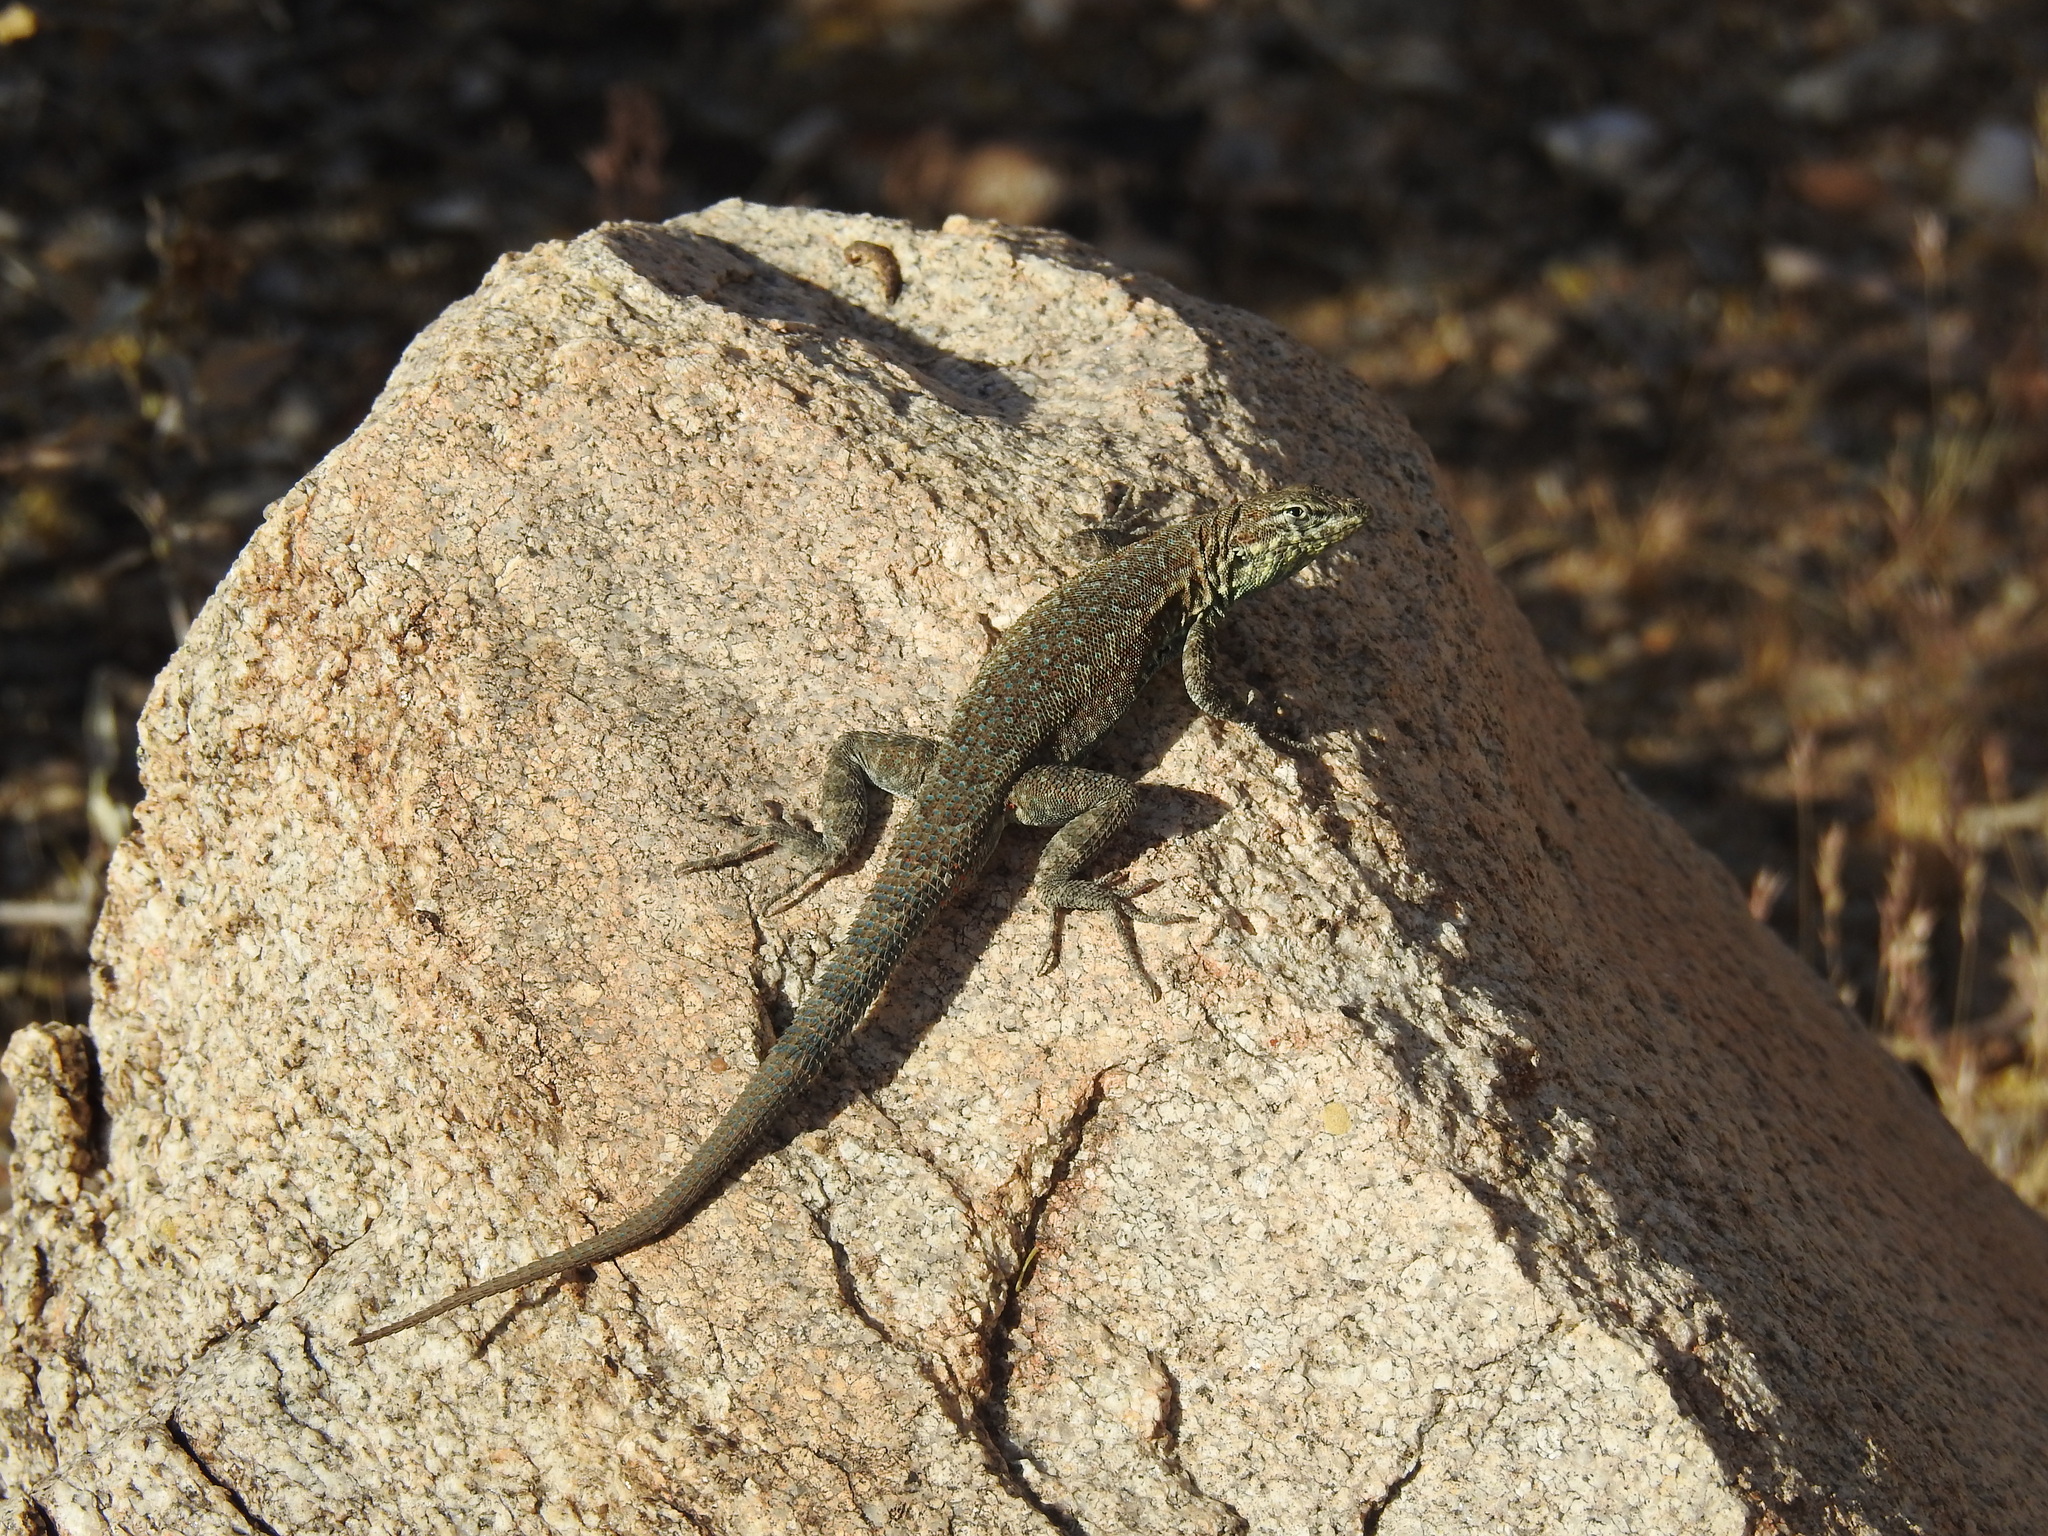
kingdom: Animalia
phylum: Chordata
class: Squamata
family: Phrynosomatidae
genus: Uta
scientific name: Uta stansburiana
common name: Side-blotched lizard
